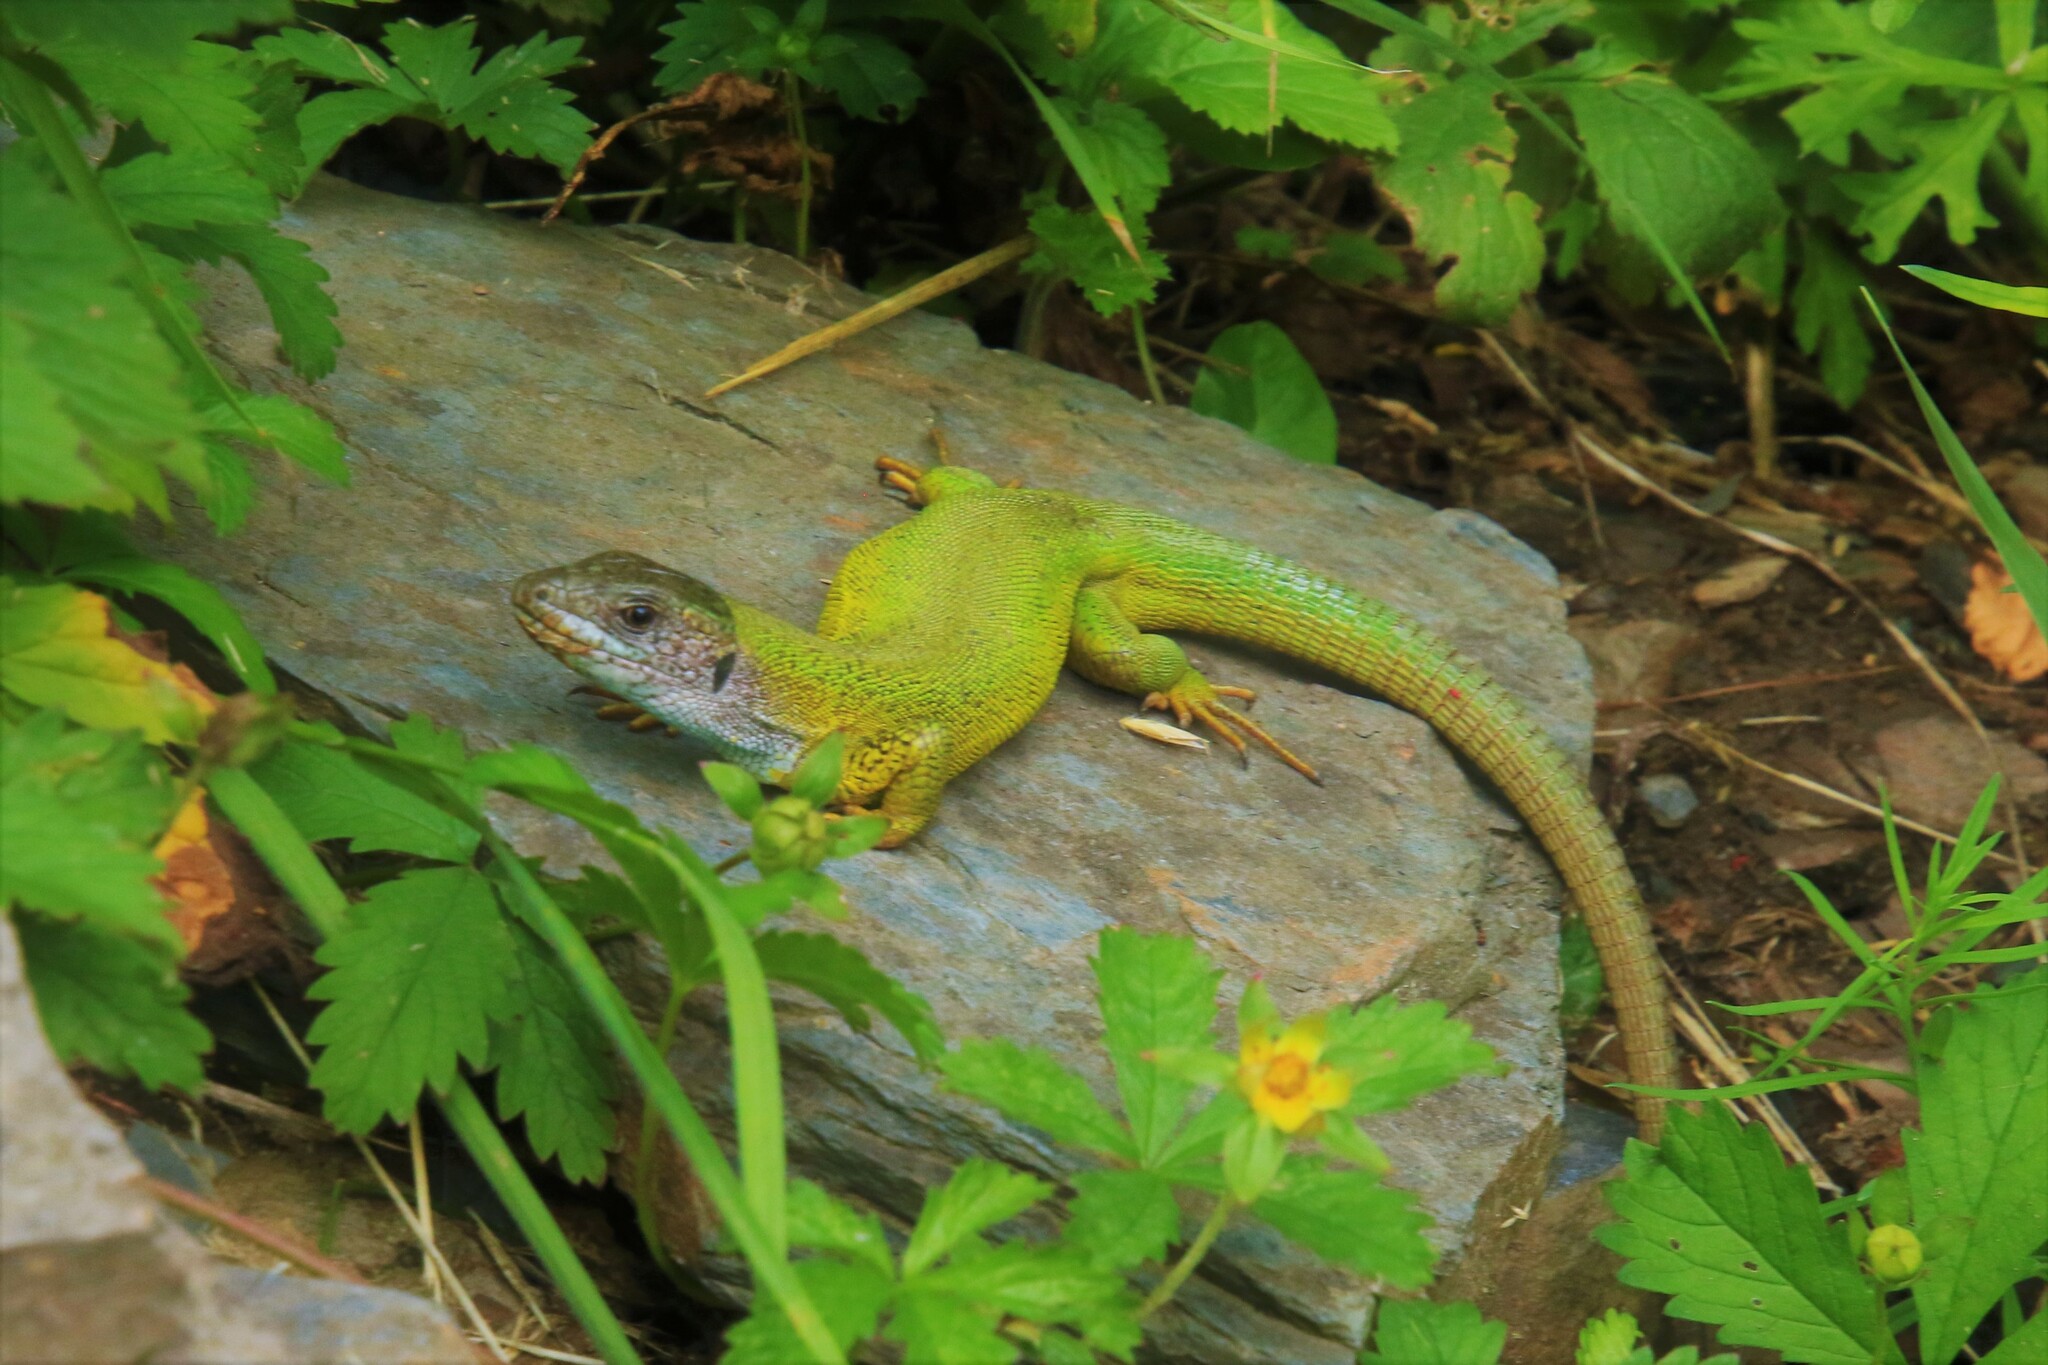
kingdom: Animalia
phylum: Chordata
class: Squamata
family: Lacertidae
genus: Lacerta
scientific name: Lacerta viridis
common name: European green lizard
